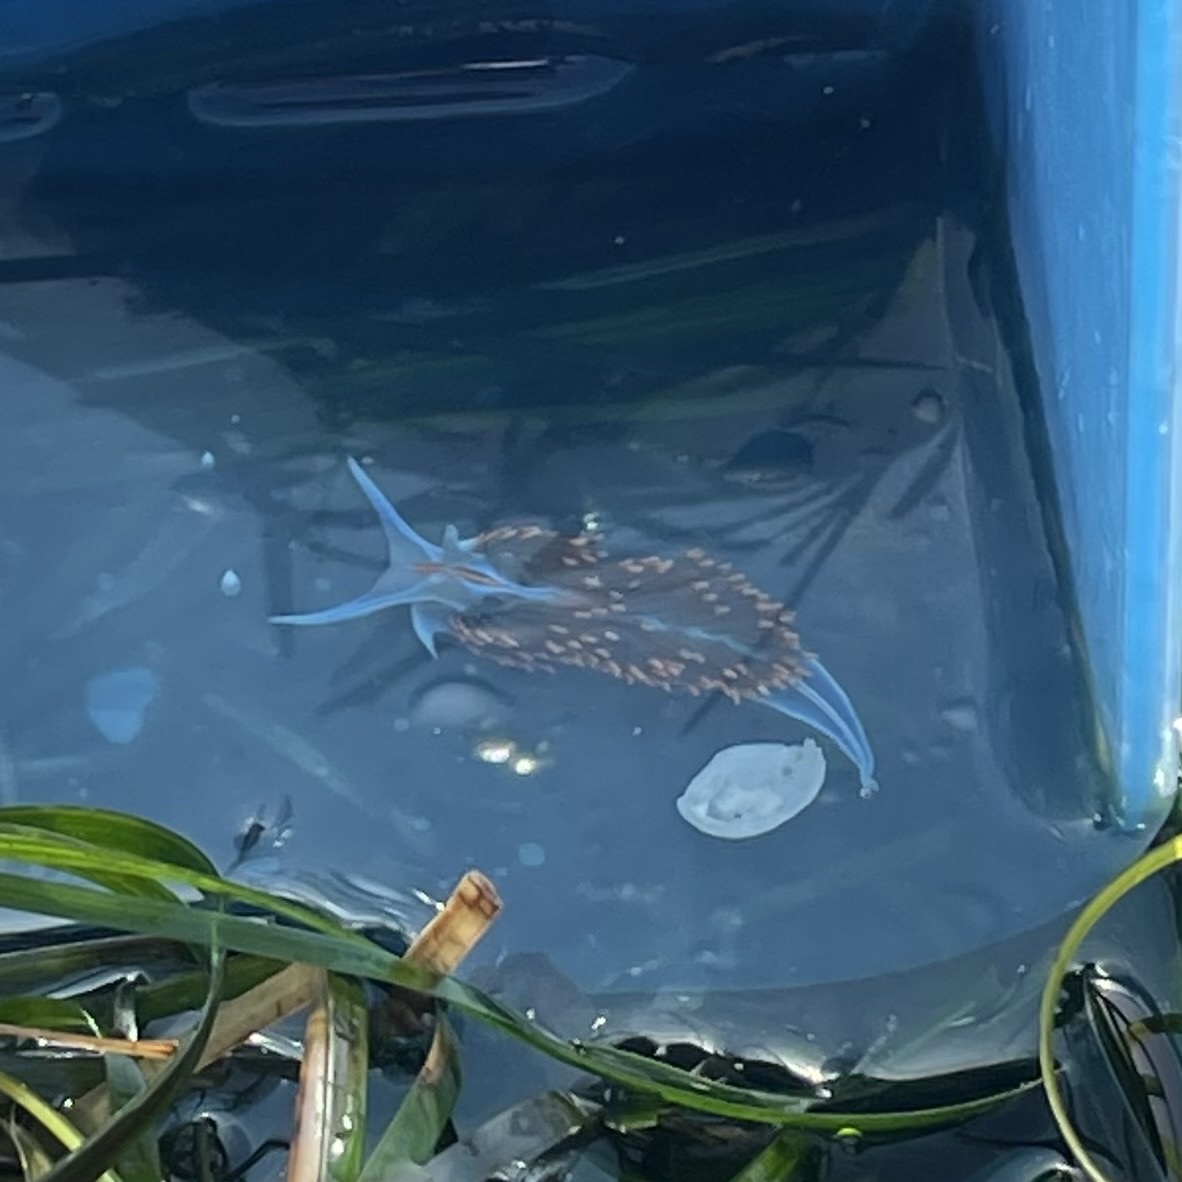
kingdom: Animalia
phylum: Mollusca
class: Gastropoda
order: Nudibranchia
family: Myrrhinidae
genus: Hermissenda
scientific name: Hermissenda opalescens
